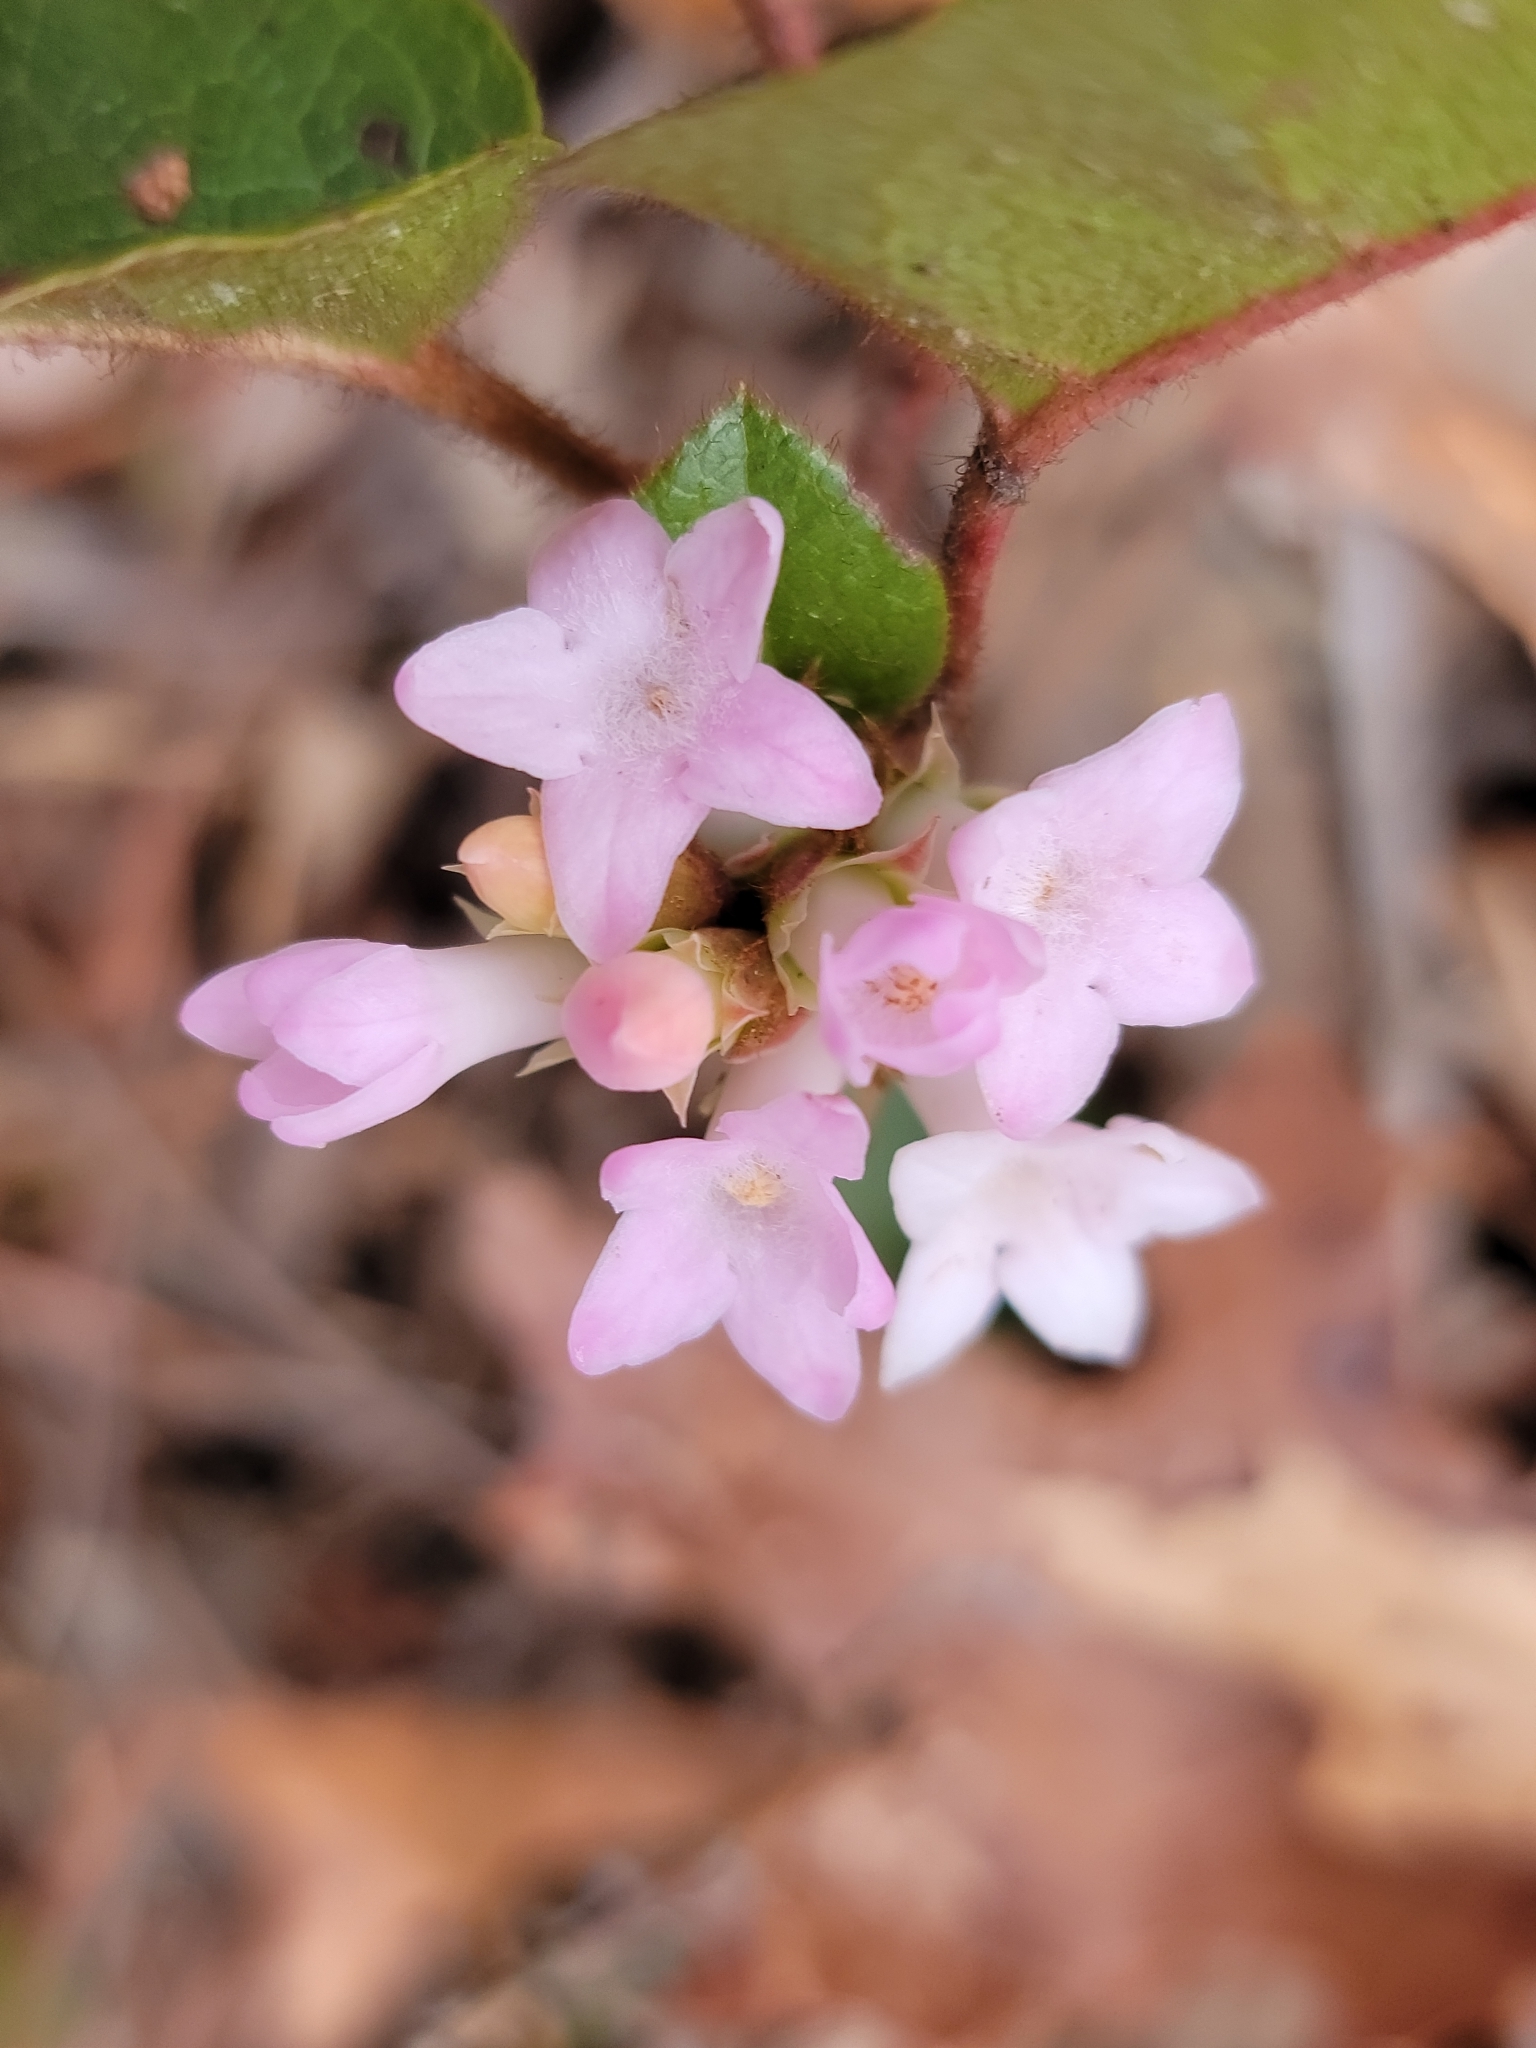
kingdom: Plantae
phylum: Tracheophyta
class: Magnoliopsida
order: Ericales
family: Ericaceae
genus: Epigaea
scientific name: Epigaea repens
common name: Gravelroot
